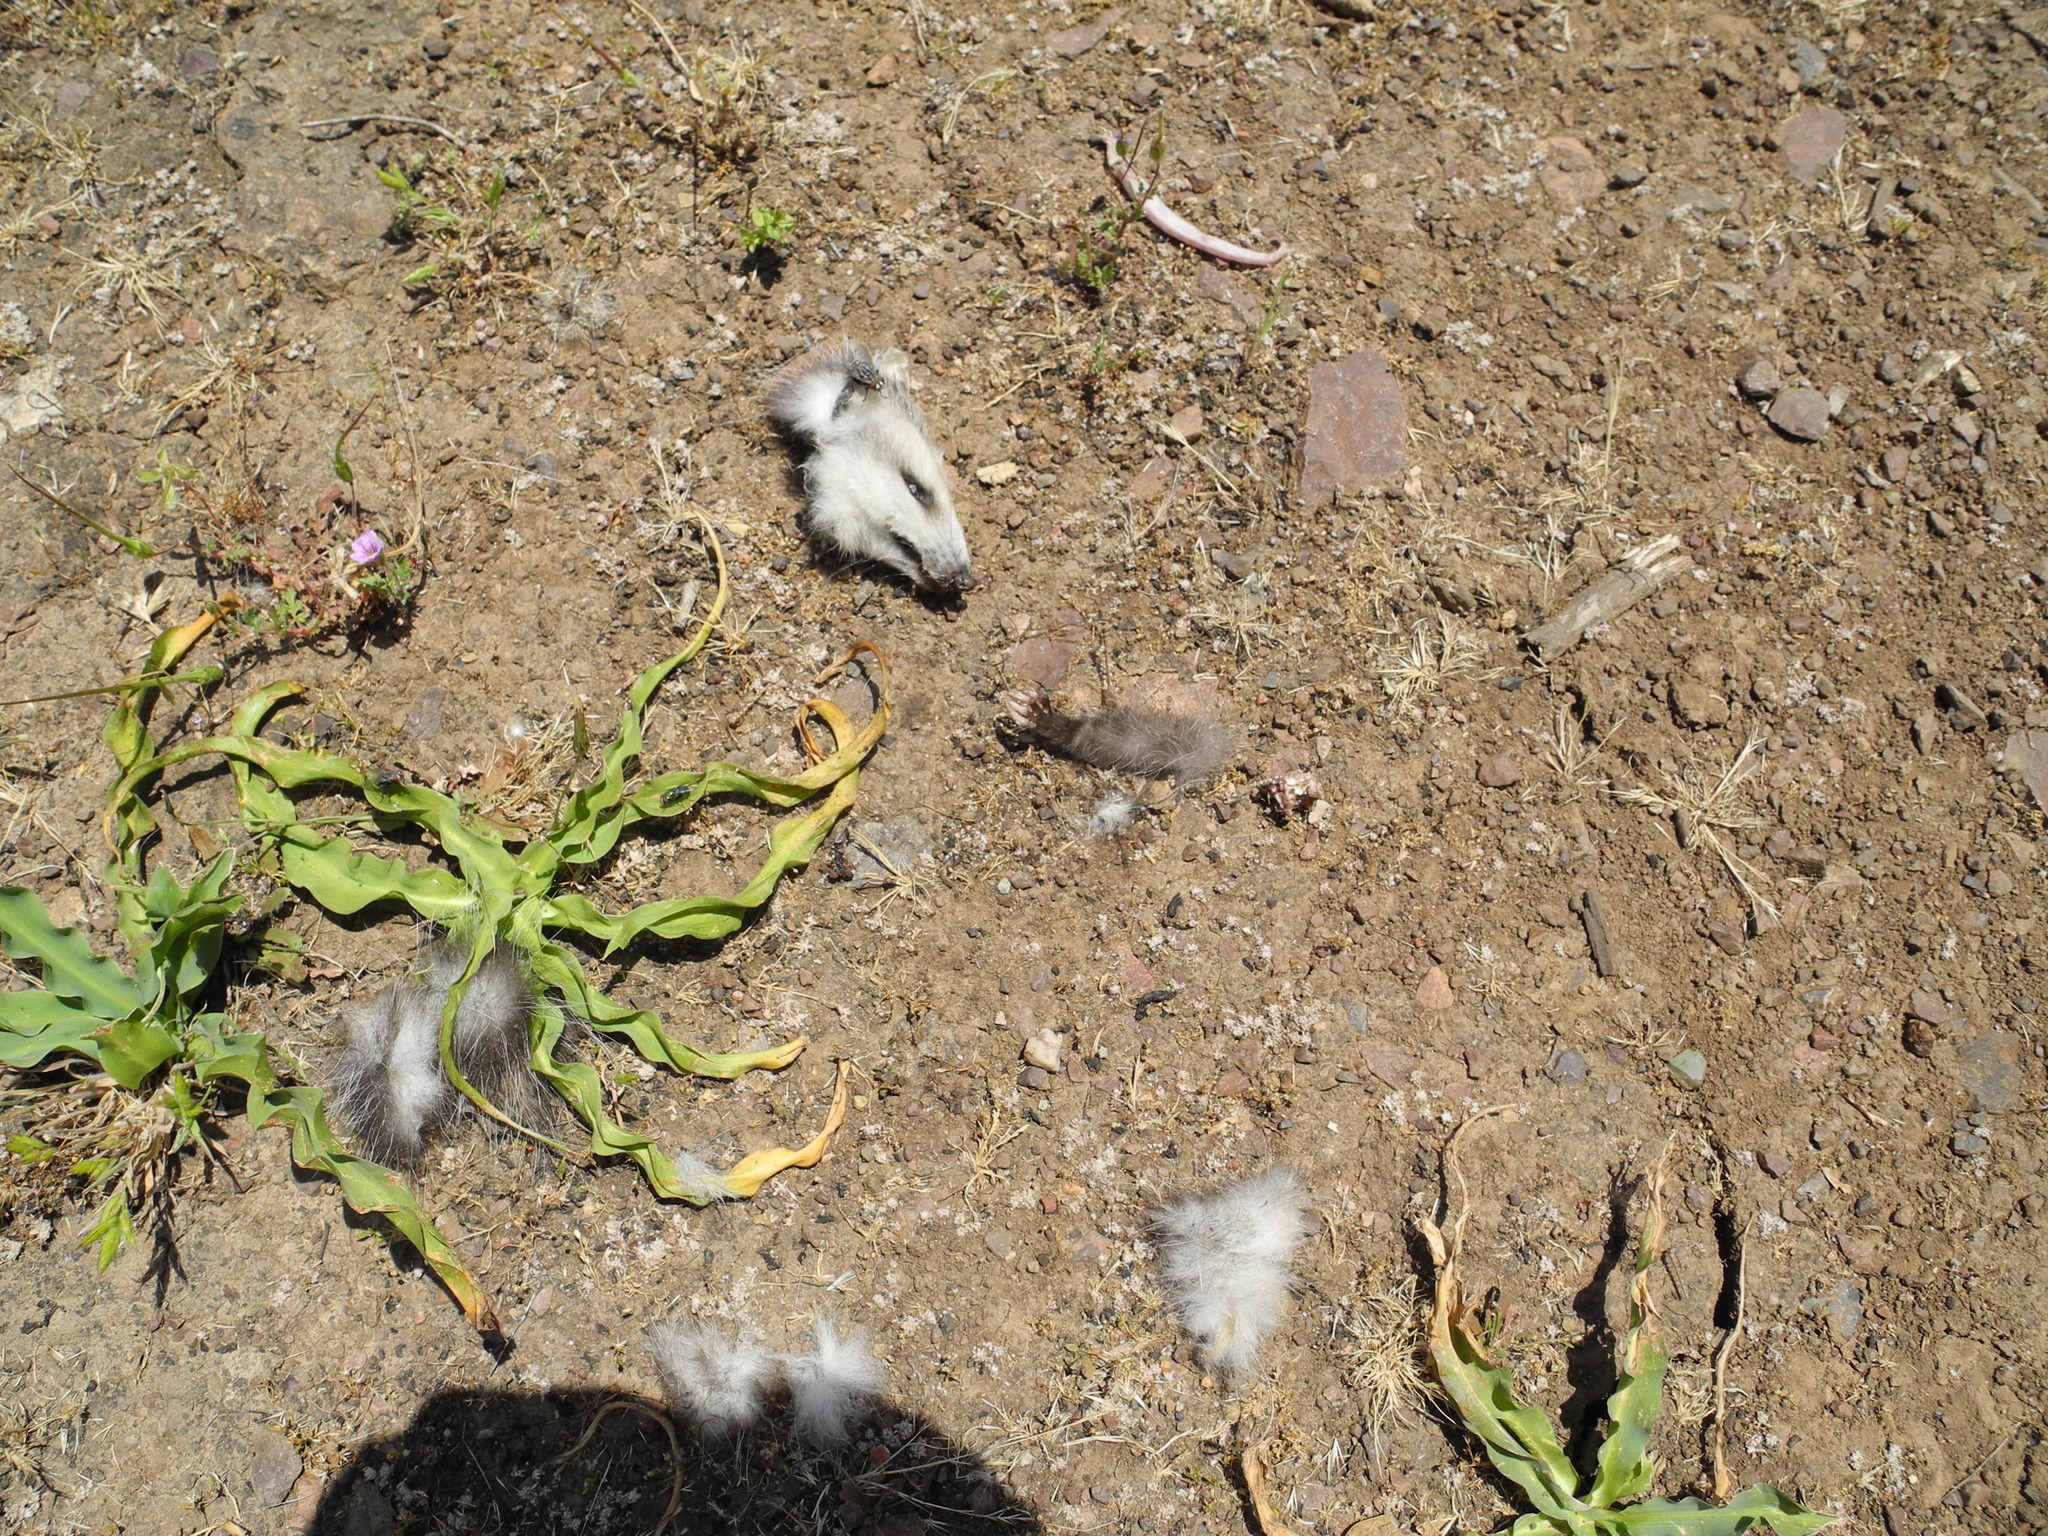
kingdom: Animalia
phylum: Chordata
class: Mammalia
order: Didelphimorphia
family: Didelphidae
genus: Didelphis
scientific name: Didelphis virginiana
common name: Virginia opossum
